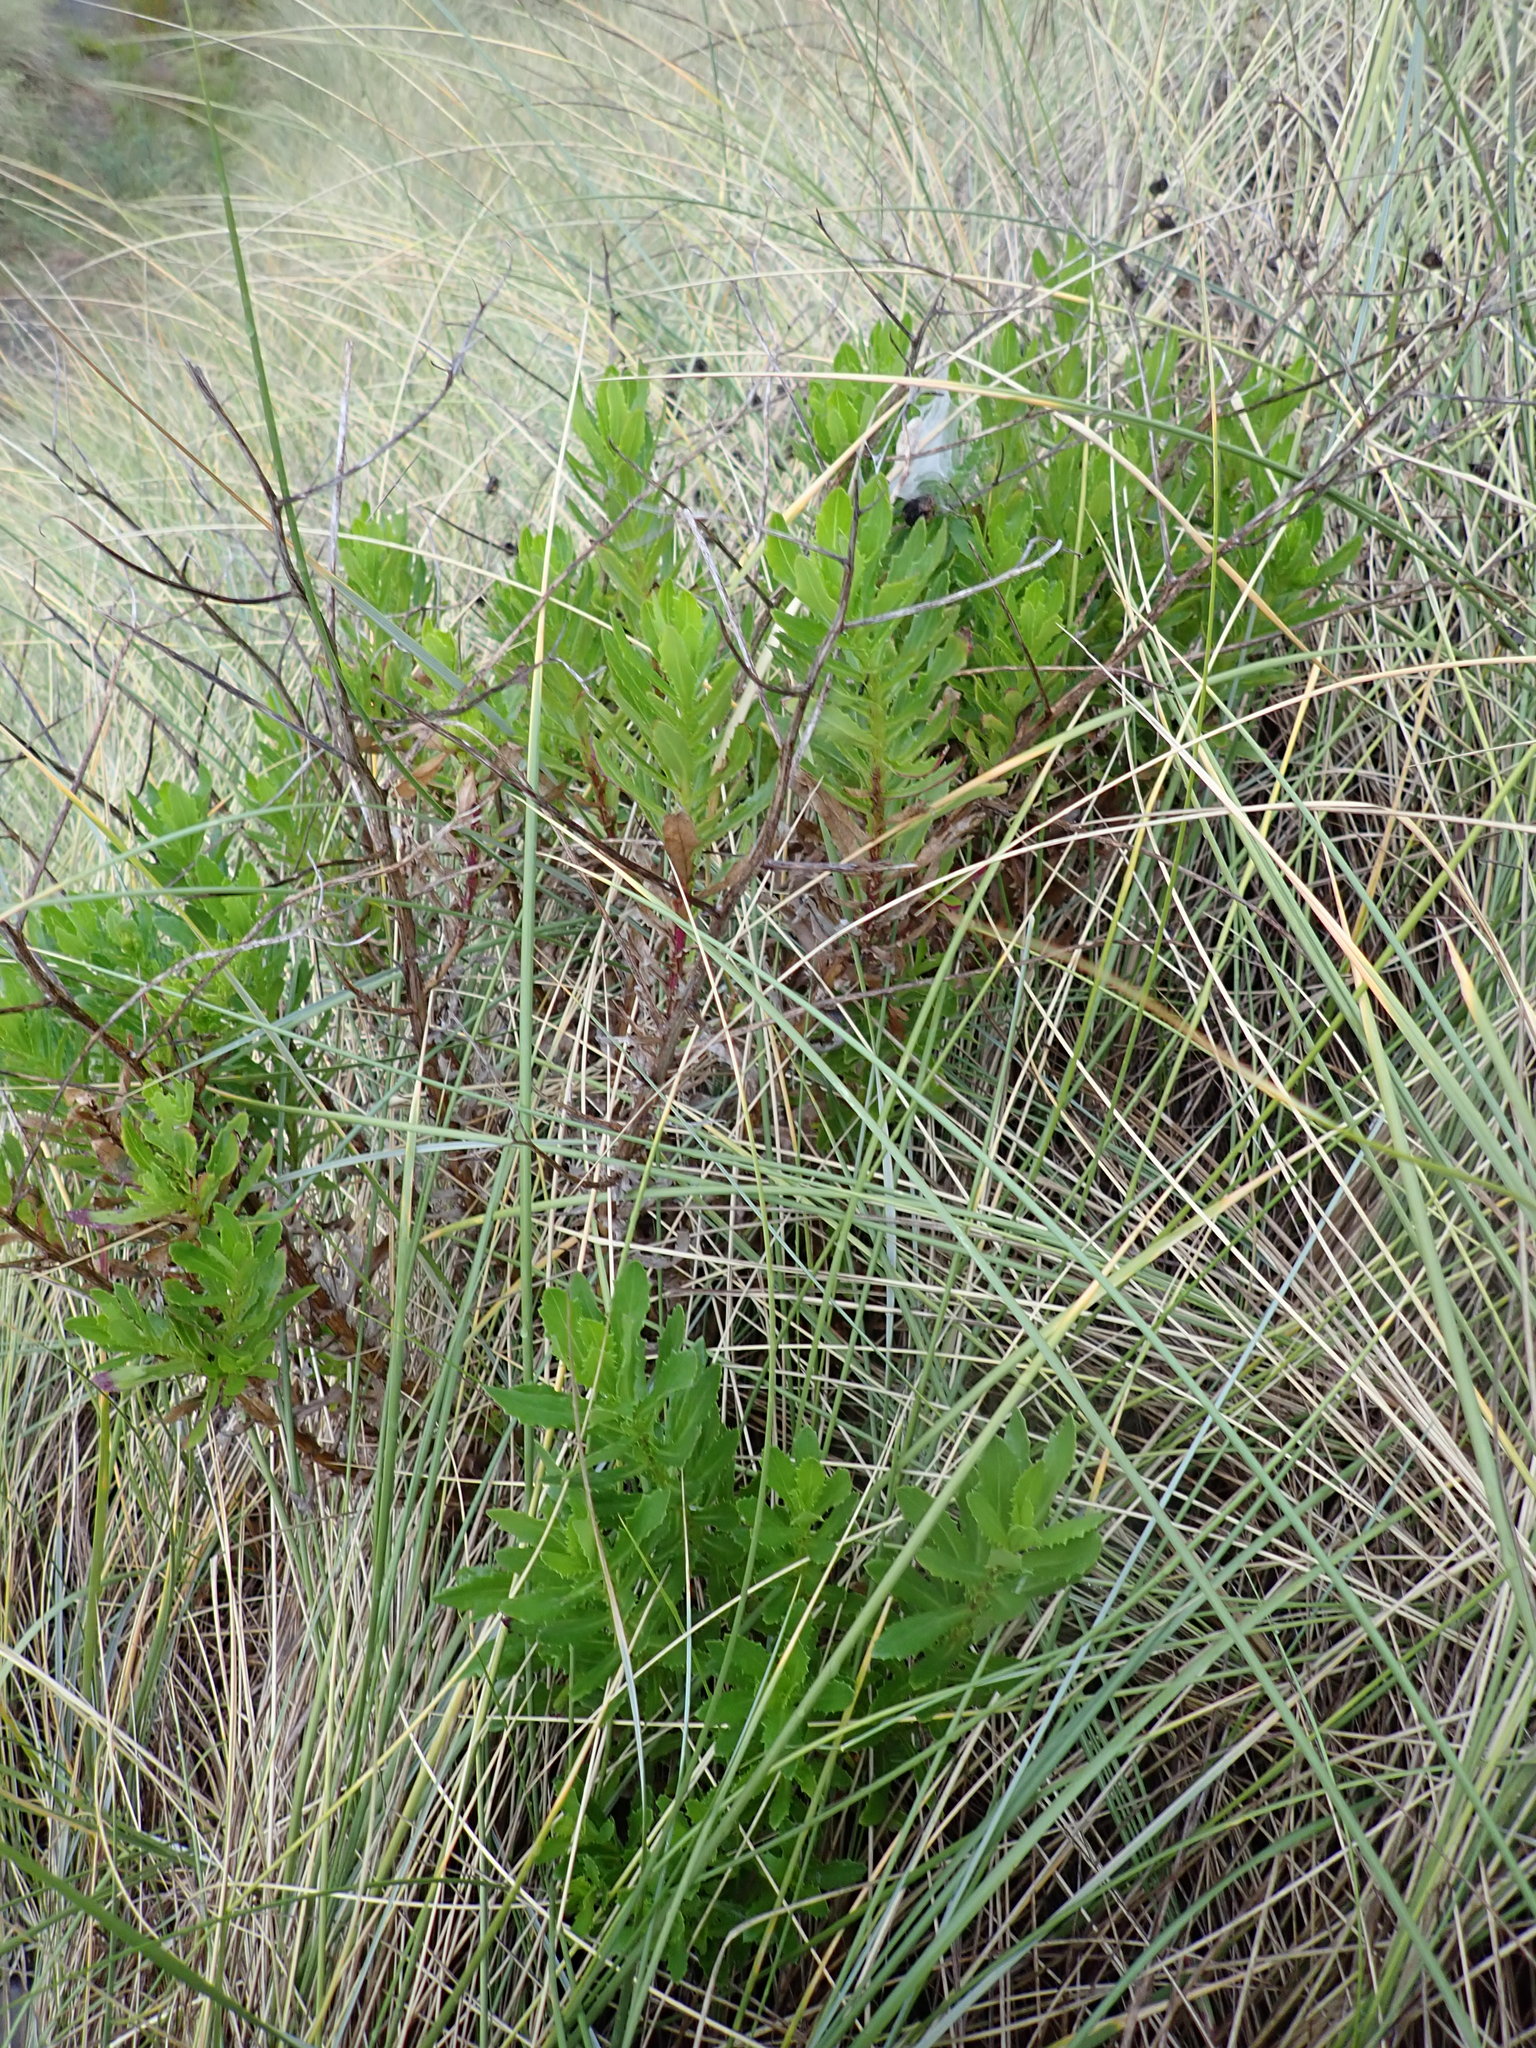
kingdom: Plantae
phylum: Tracheophyta
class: Magnoliopsida
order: Asterales
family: Asteraceae
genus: Senecio
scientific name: Senecio glastifolius
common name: Woad-leaved ragwort
